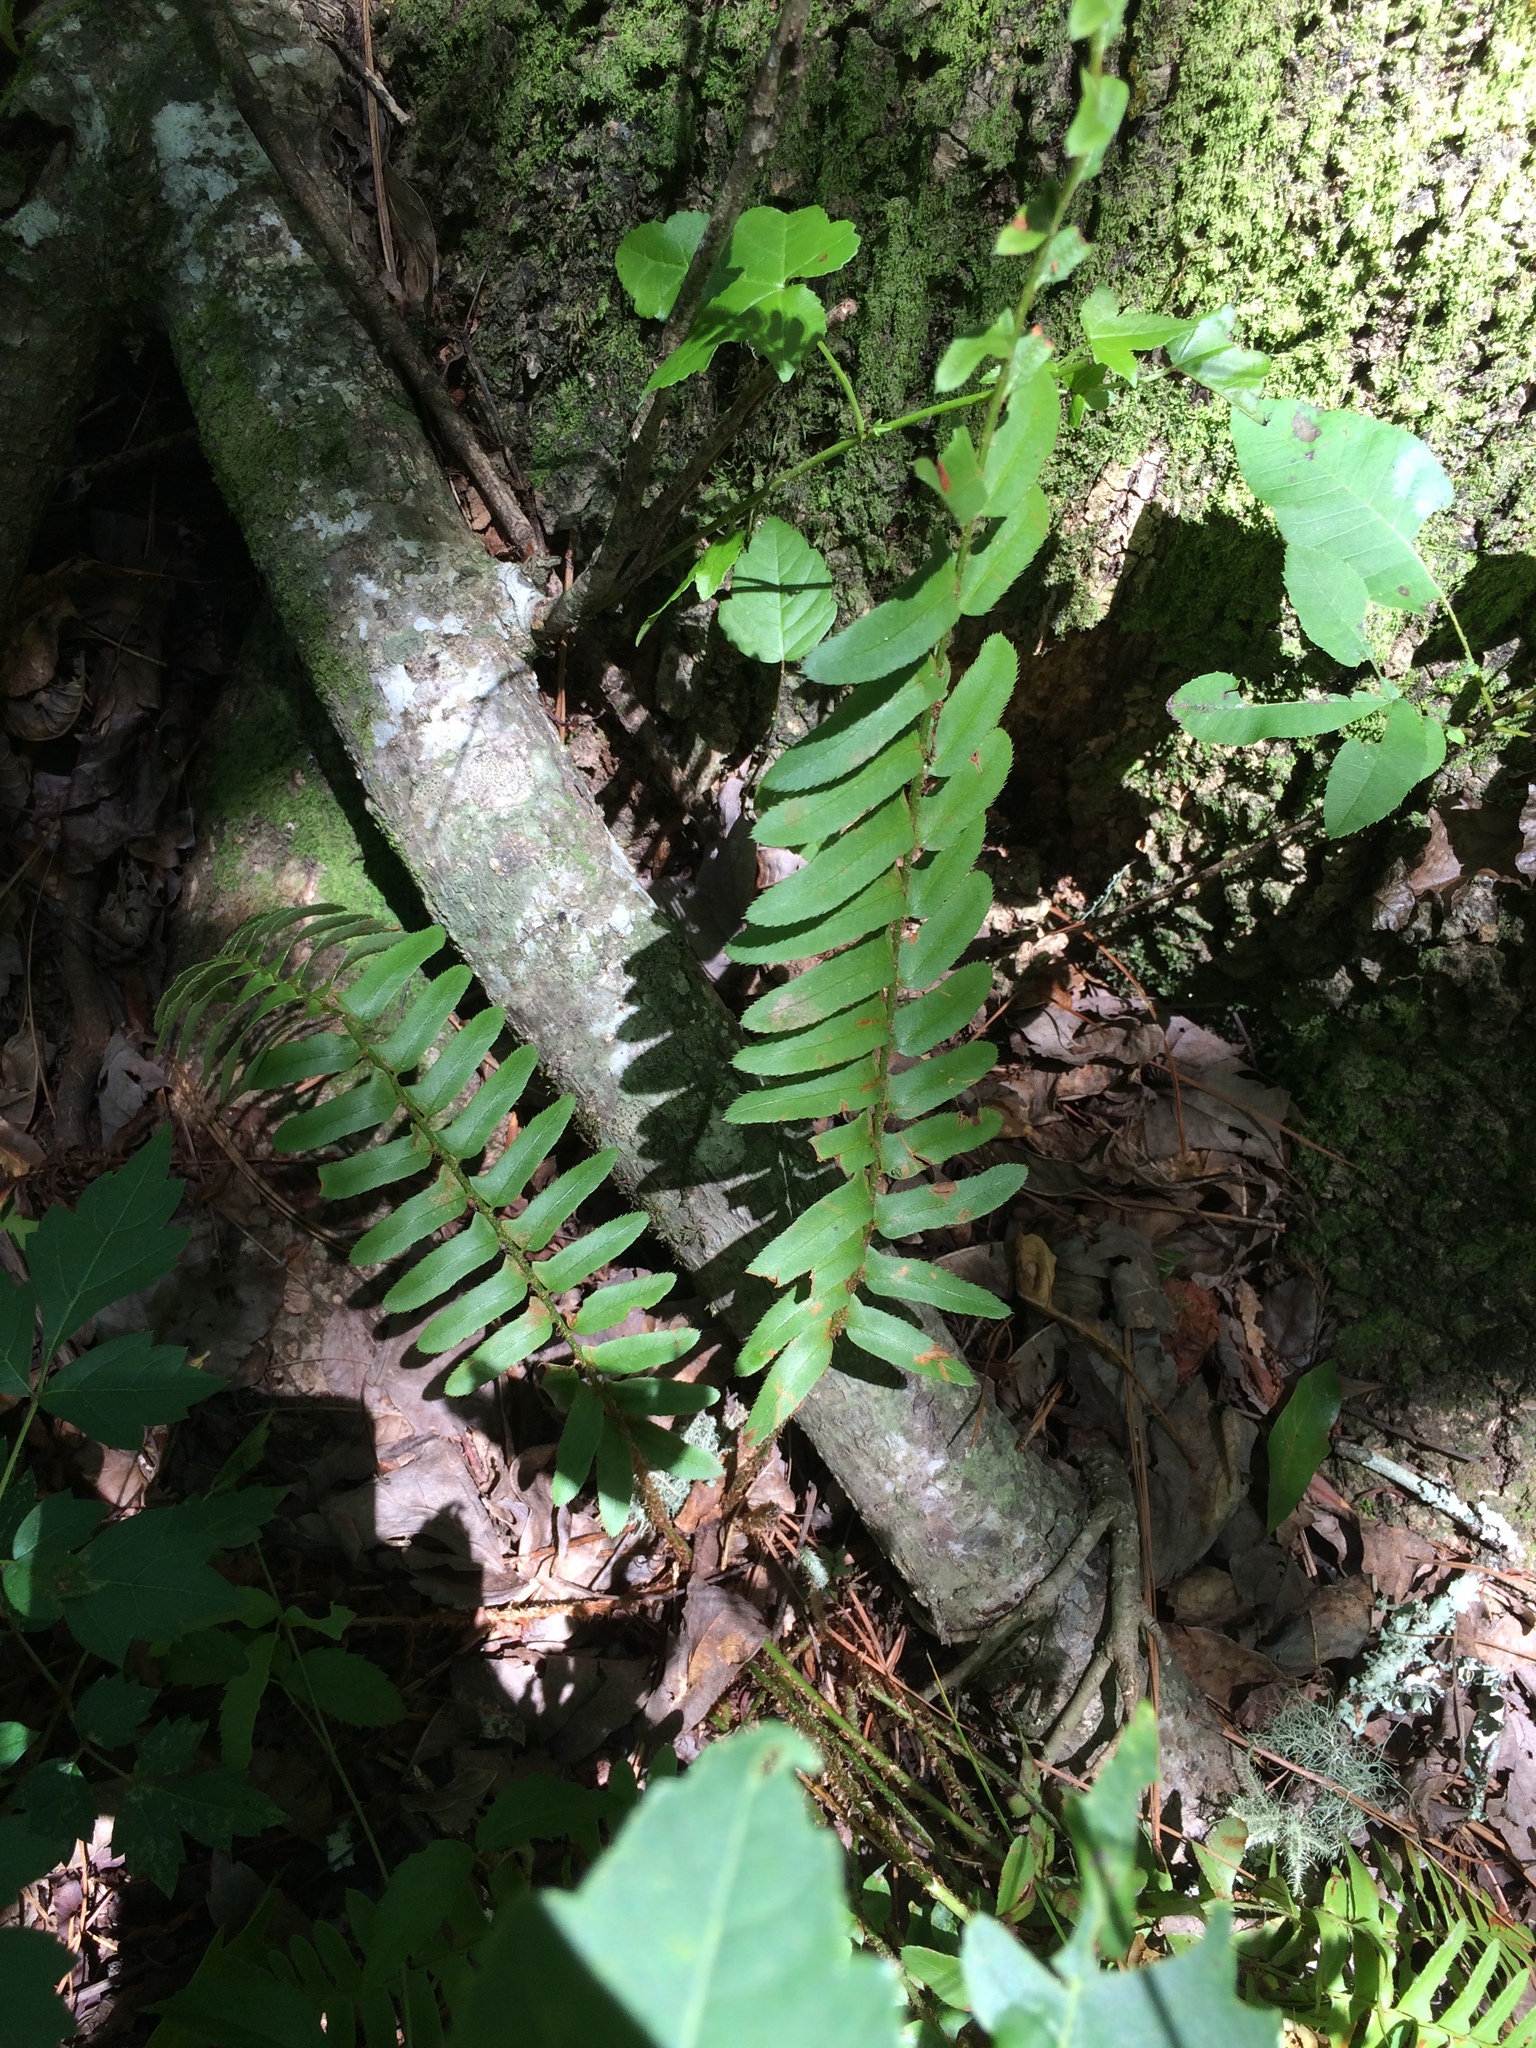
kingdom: Plantae
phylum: Tracheophyta
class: Polypodiopsida
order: Polypodiales
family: Dryopteridaceae
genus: Polystichum
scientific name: Polystichum acrostichoides
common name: Christmas fern
